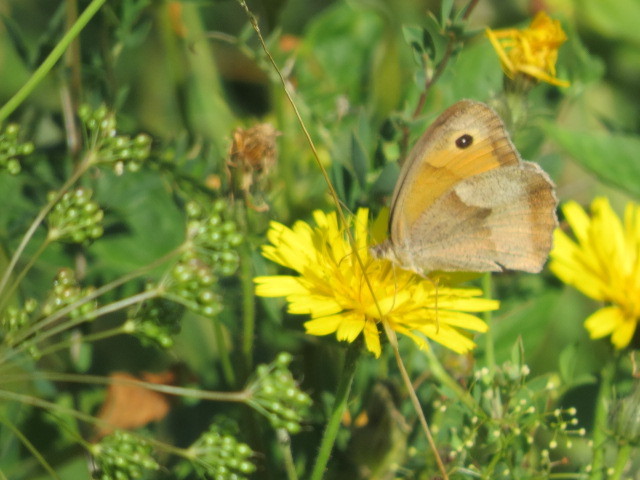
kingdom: Animalia
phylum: Arthropoda
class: Insecta
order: Lepidoptera
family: Nymphalidae
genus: Maniola
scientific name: Maniola jurtina
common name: Meadow brown
